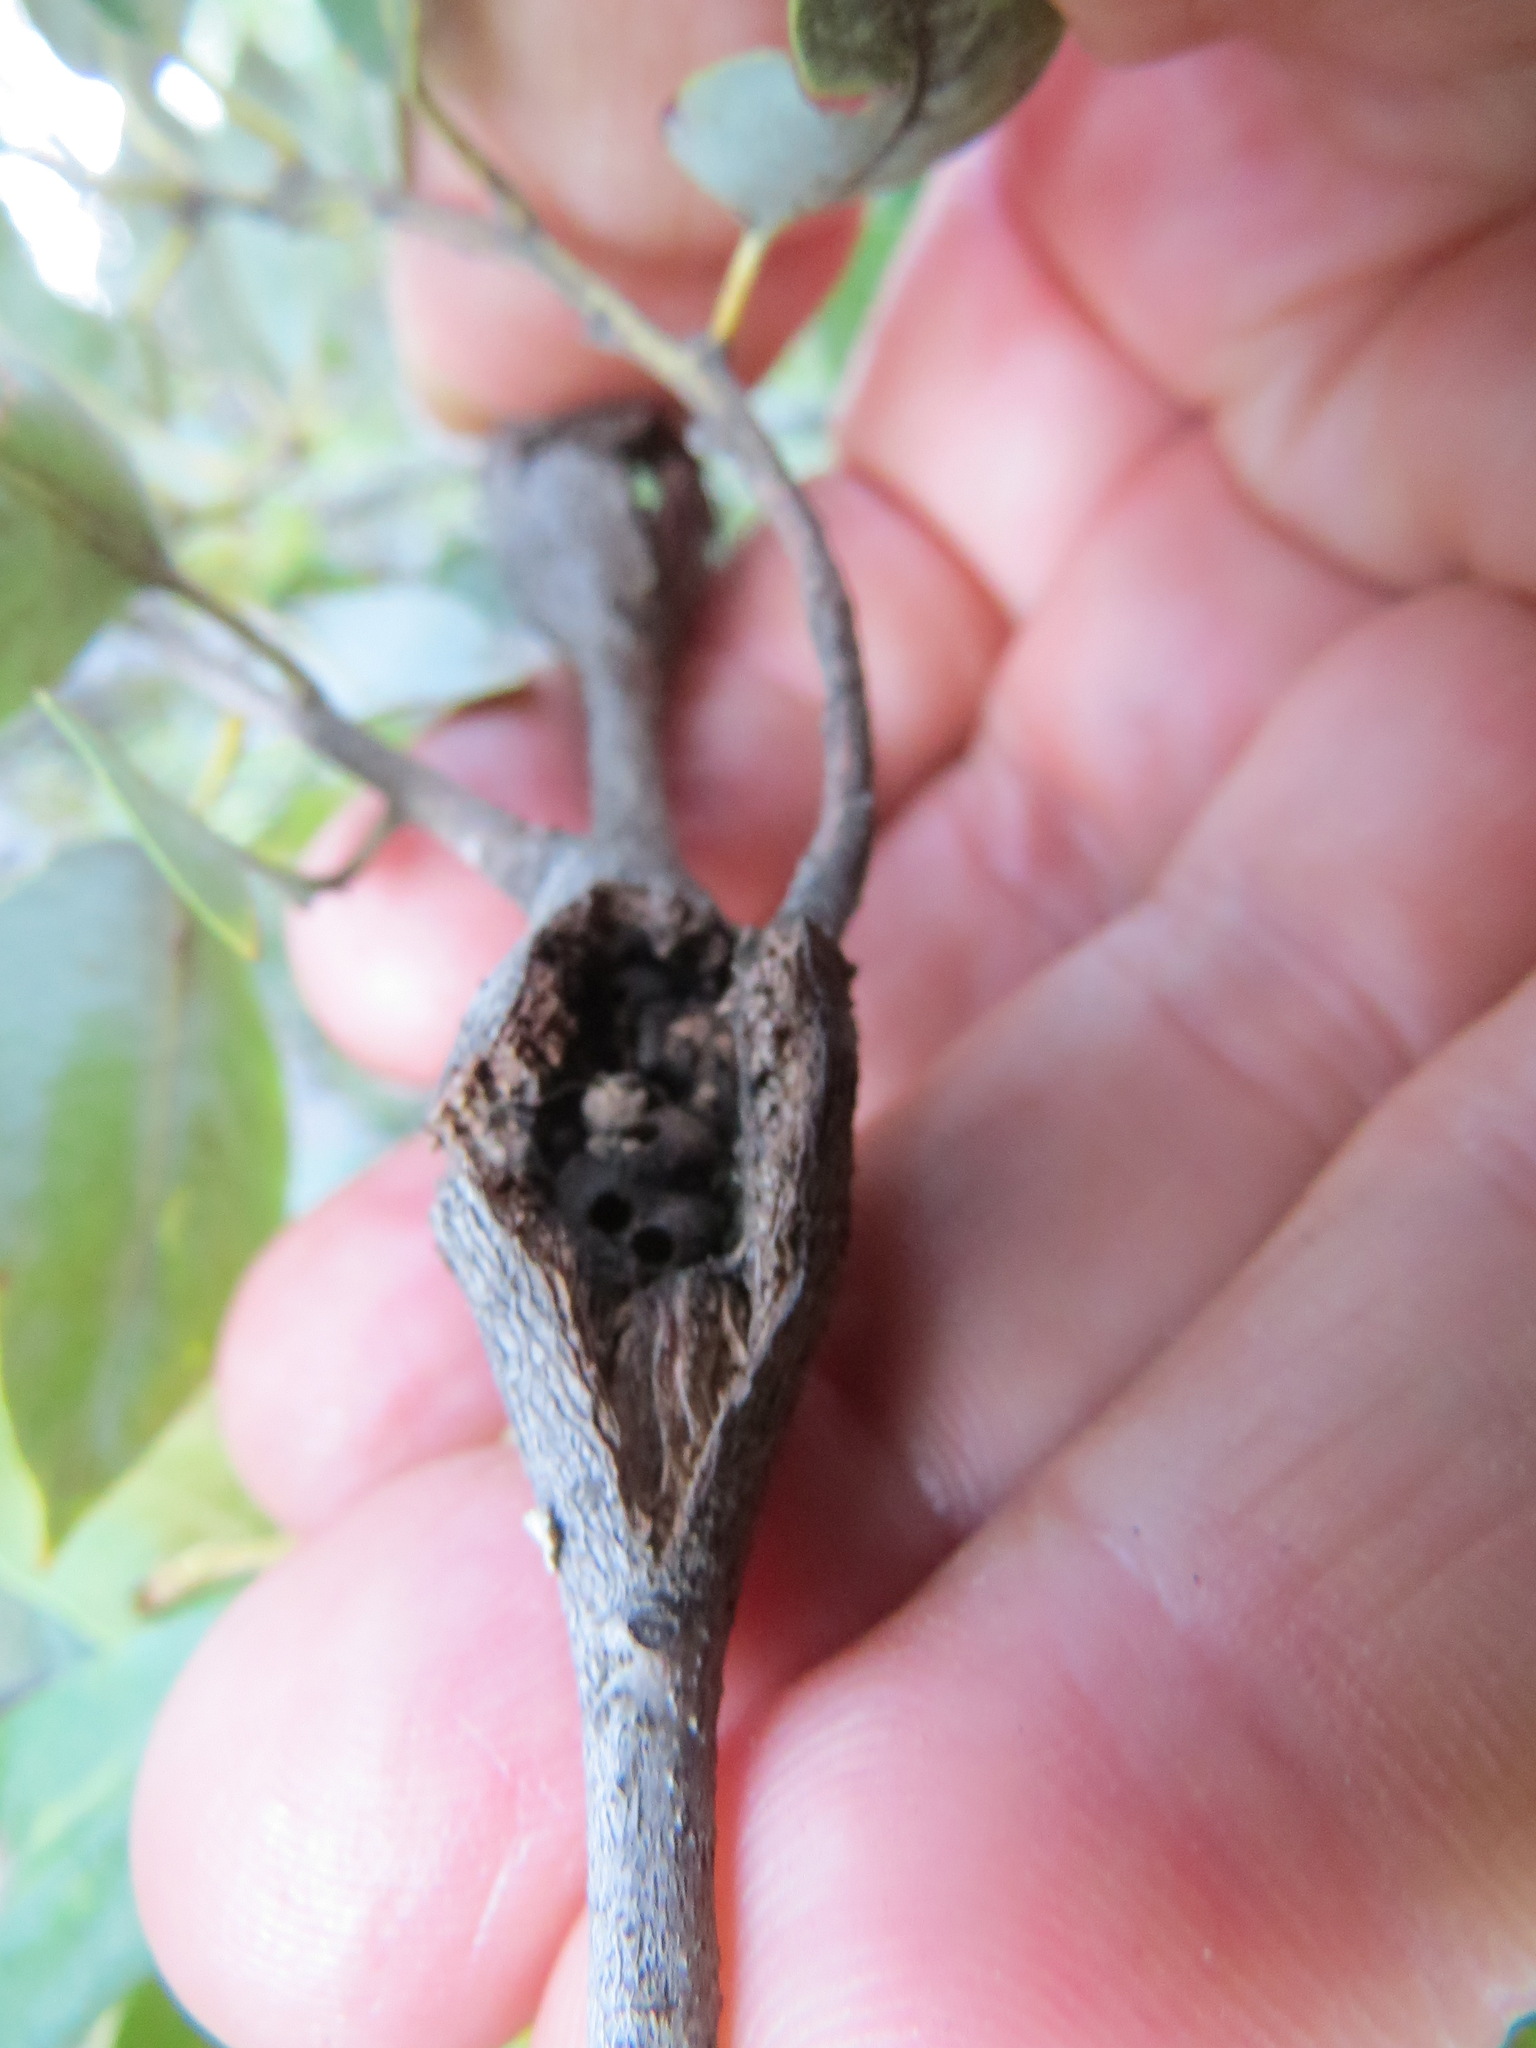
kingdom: Animalia
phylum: Arthropoda
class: Insecta
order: Hymenoptera
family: Cynipidae
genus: Dryocosmus
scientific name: Dryocosmus
